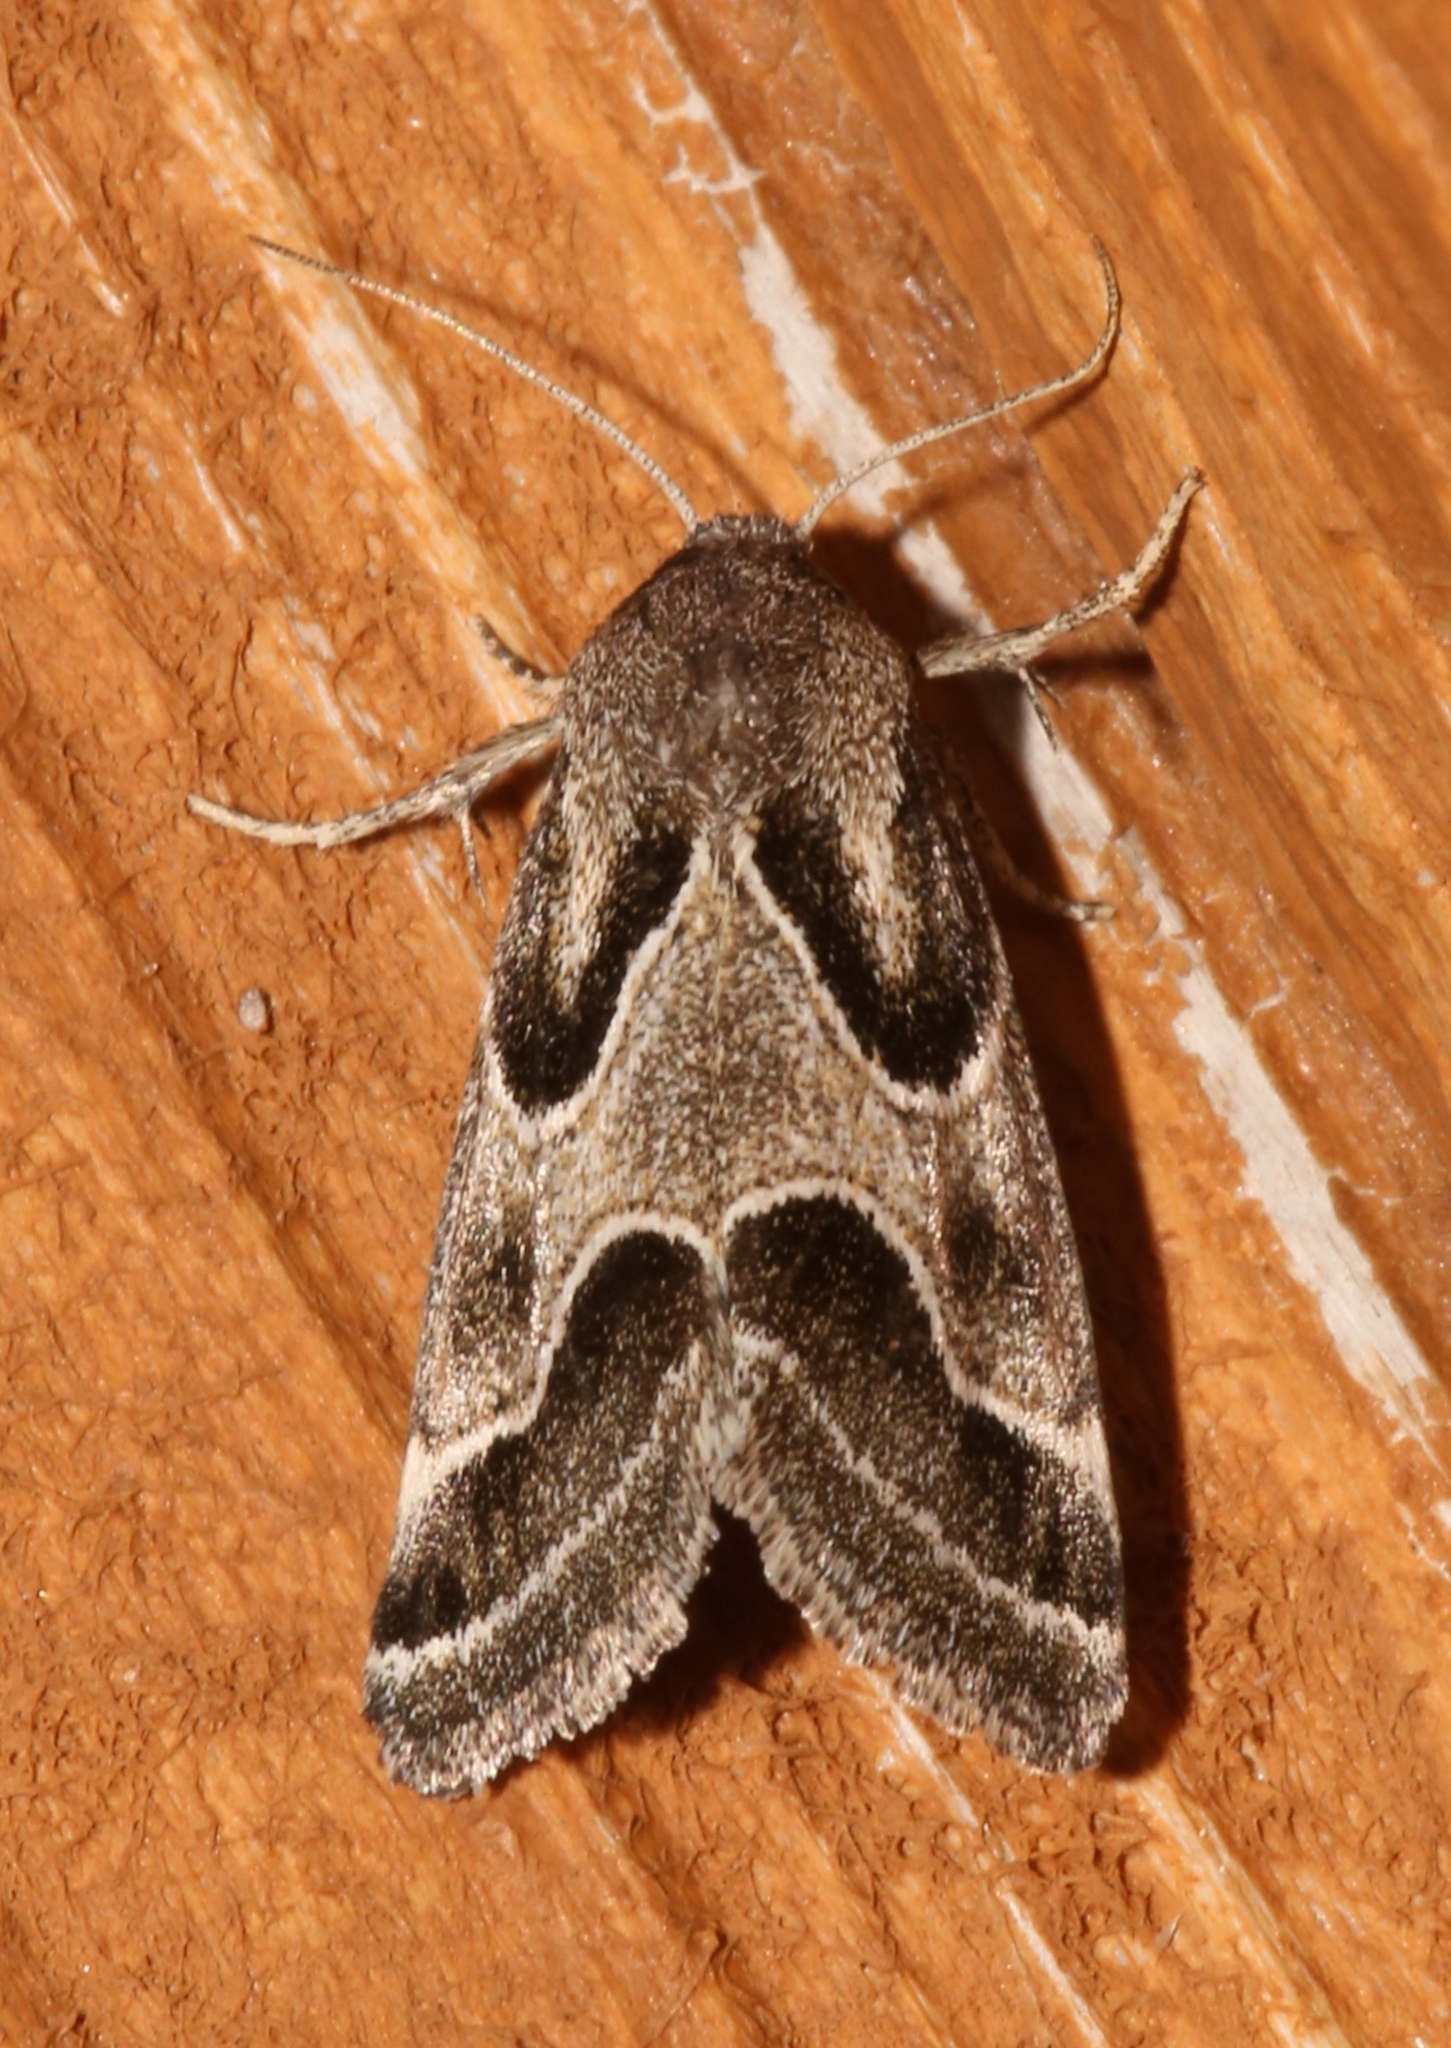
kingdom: Animalia
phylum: Arthropoda
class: Insecta
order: Lepidoptera
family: Noctuidae
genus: Schinia
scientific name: Schinia rivulosa
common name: Scarce meal-moth
